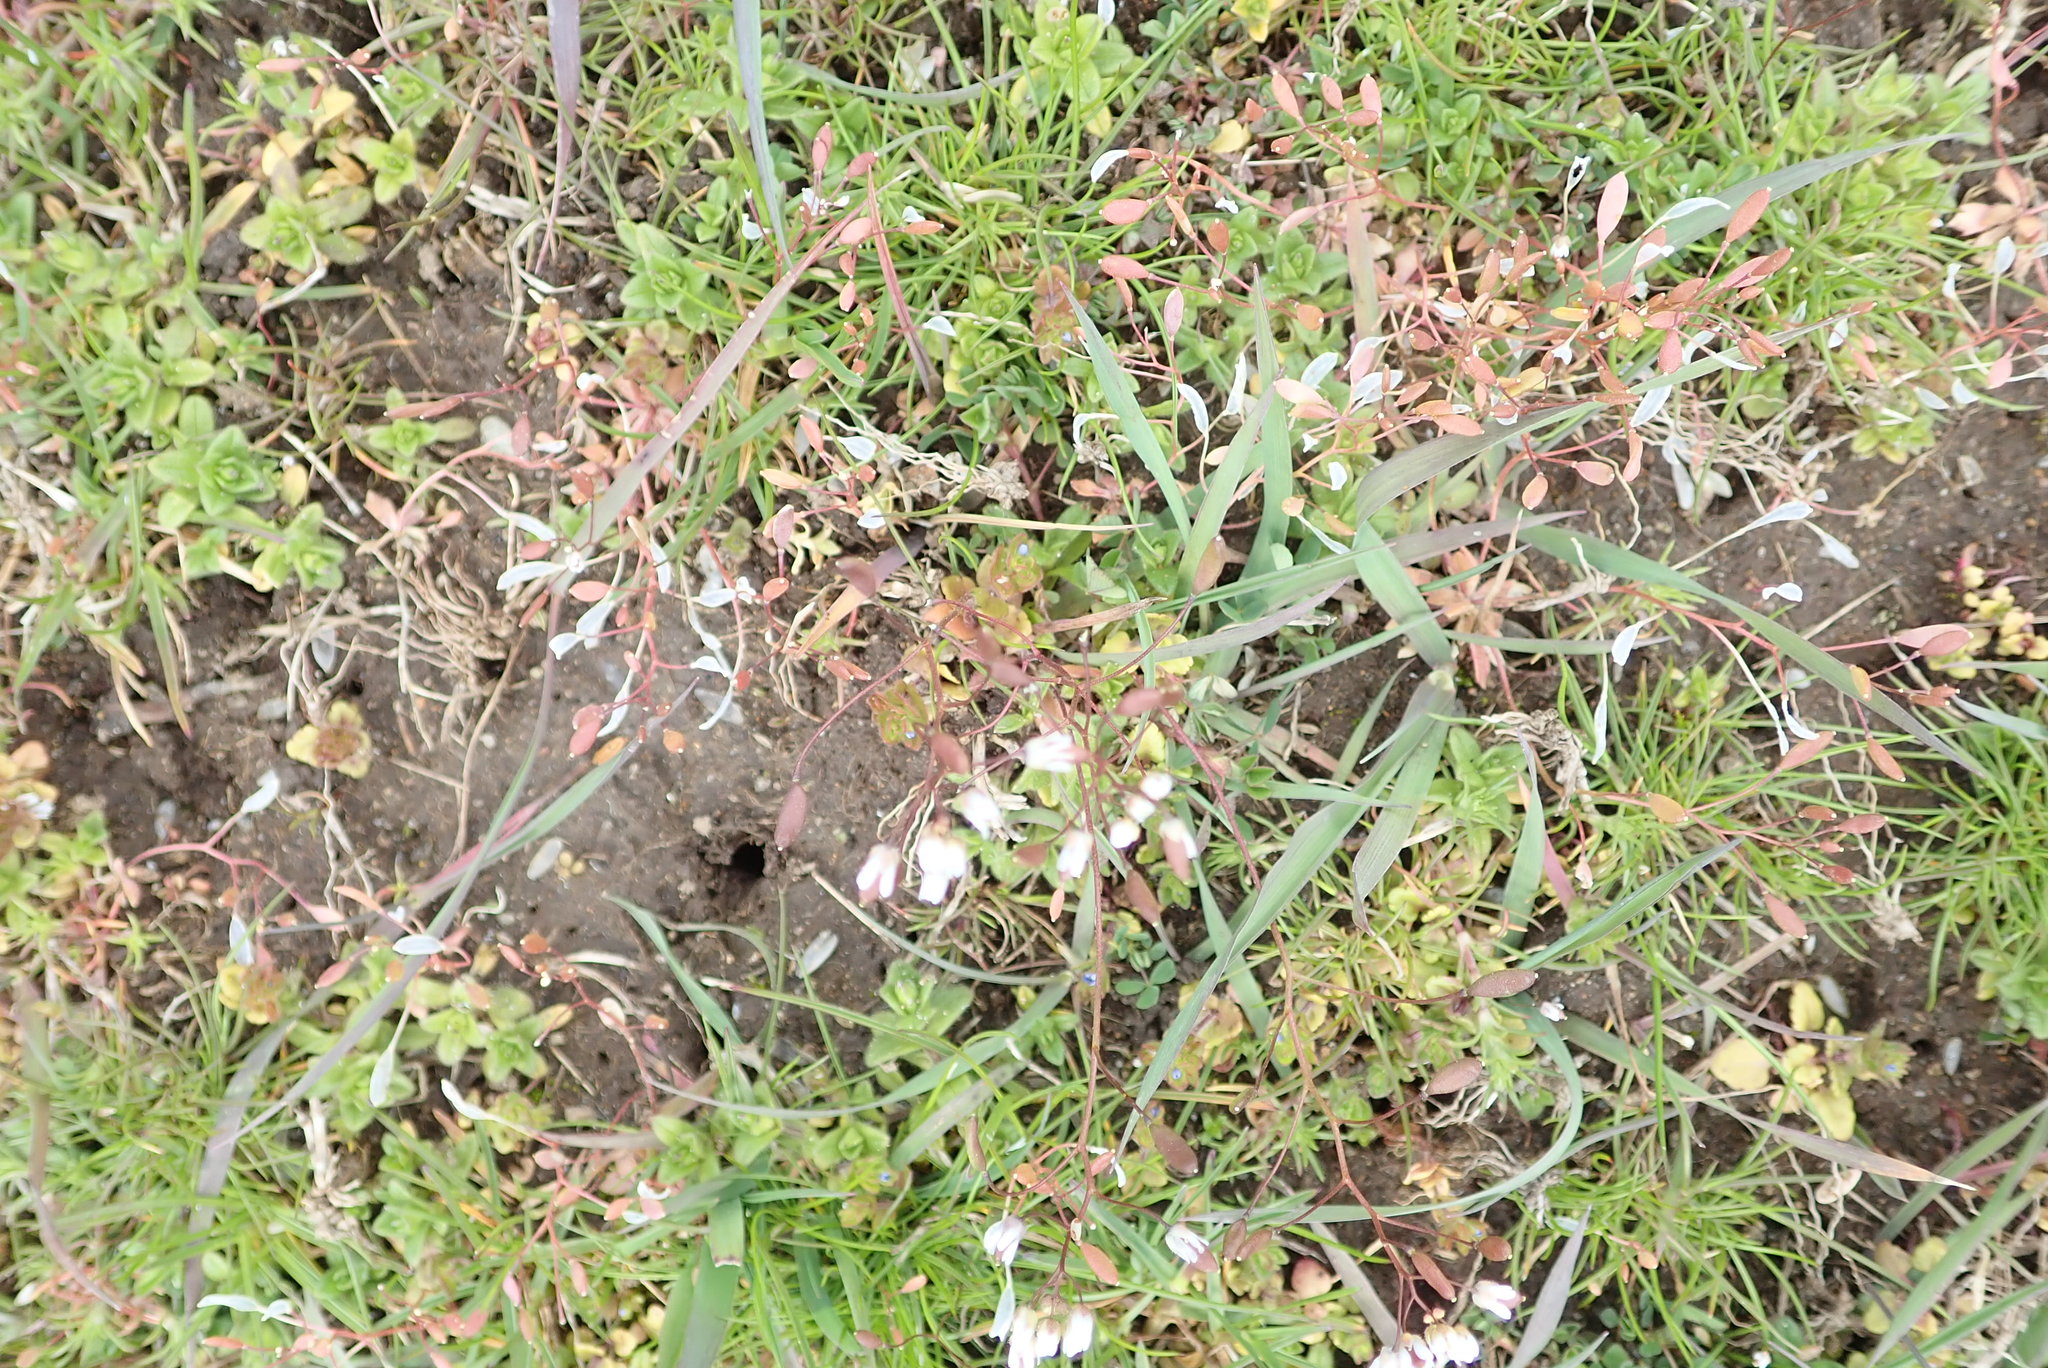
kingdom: Plantae
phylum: Tracheophyta
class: Magnoliopsida
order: Brassicales
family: Brassicaceae
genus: Draba
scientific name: Draba verna
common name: Spring draba
